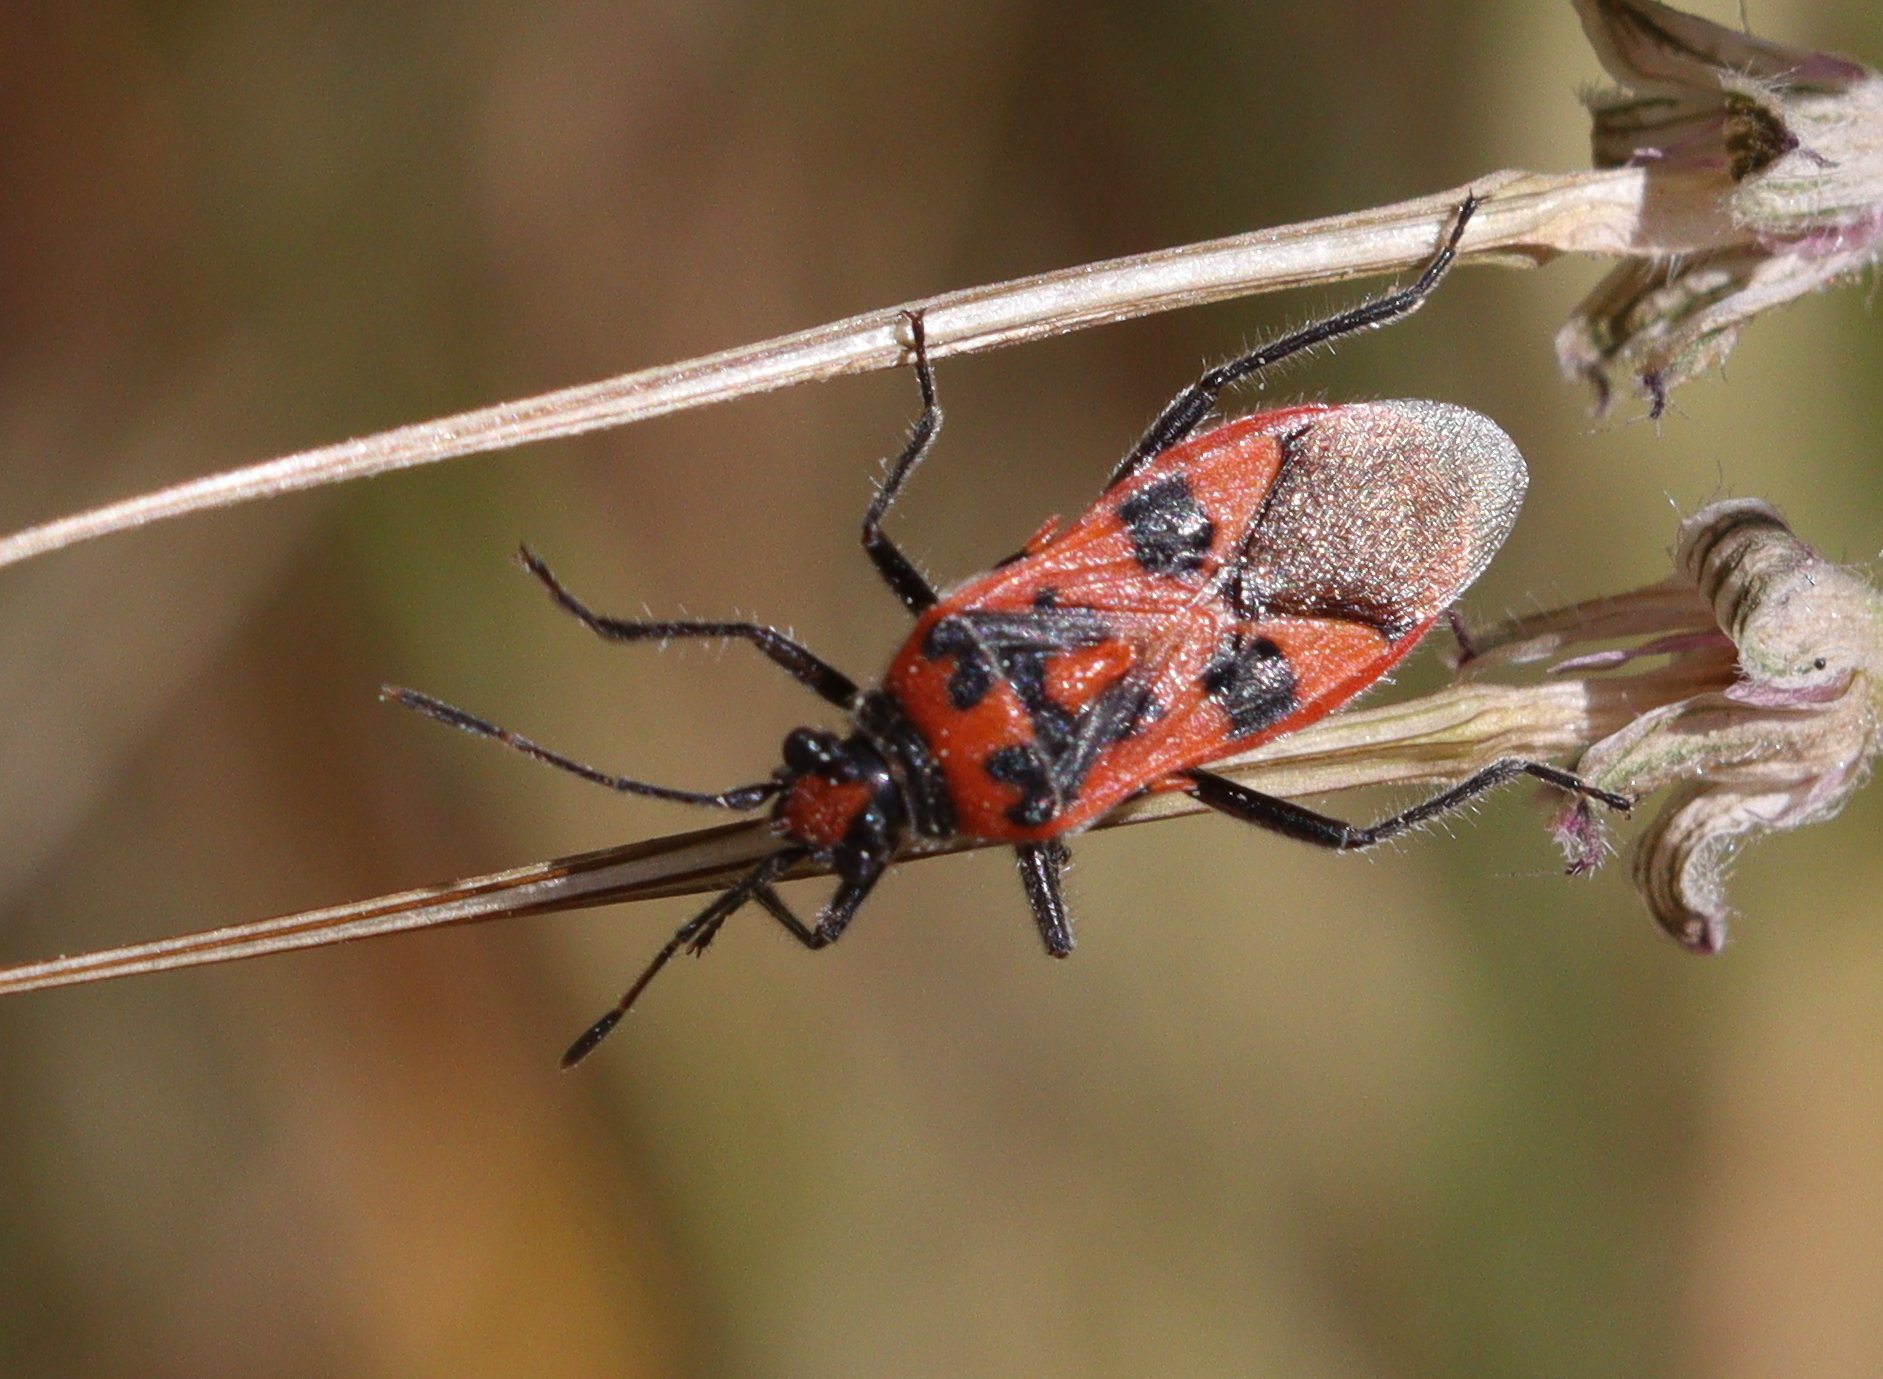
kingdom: Animalia
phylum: Arthropoda
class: Insecta
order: Hemiptera
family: Rhopalidae
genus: Corizus
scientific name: Corizus hyoscyami
